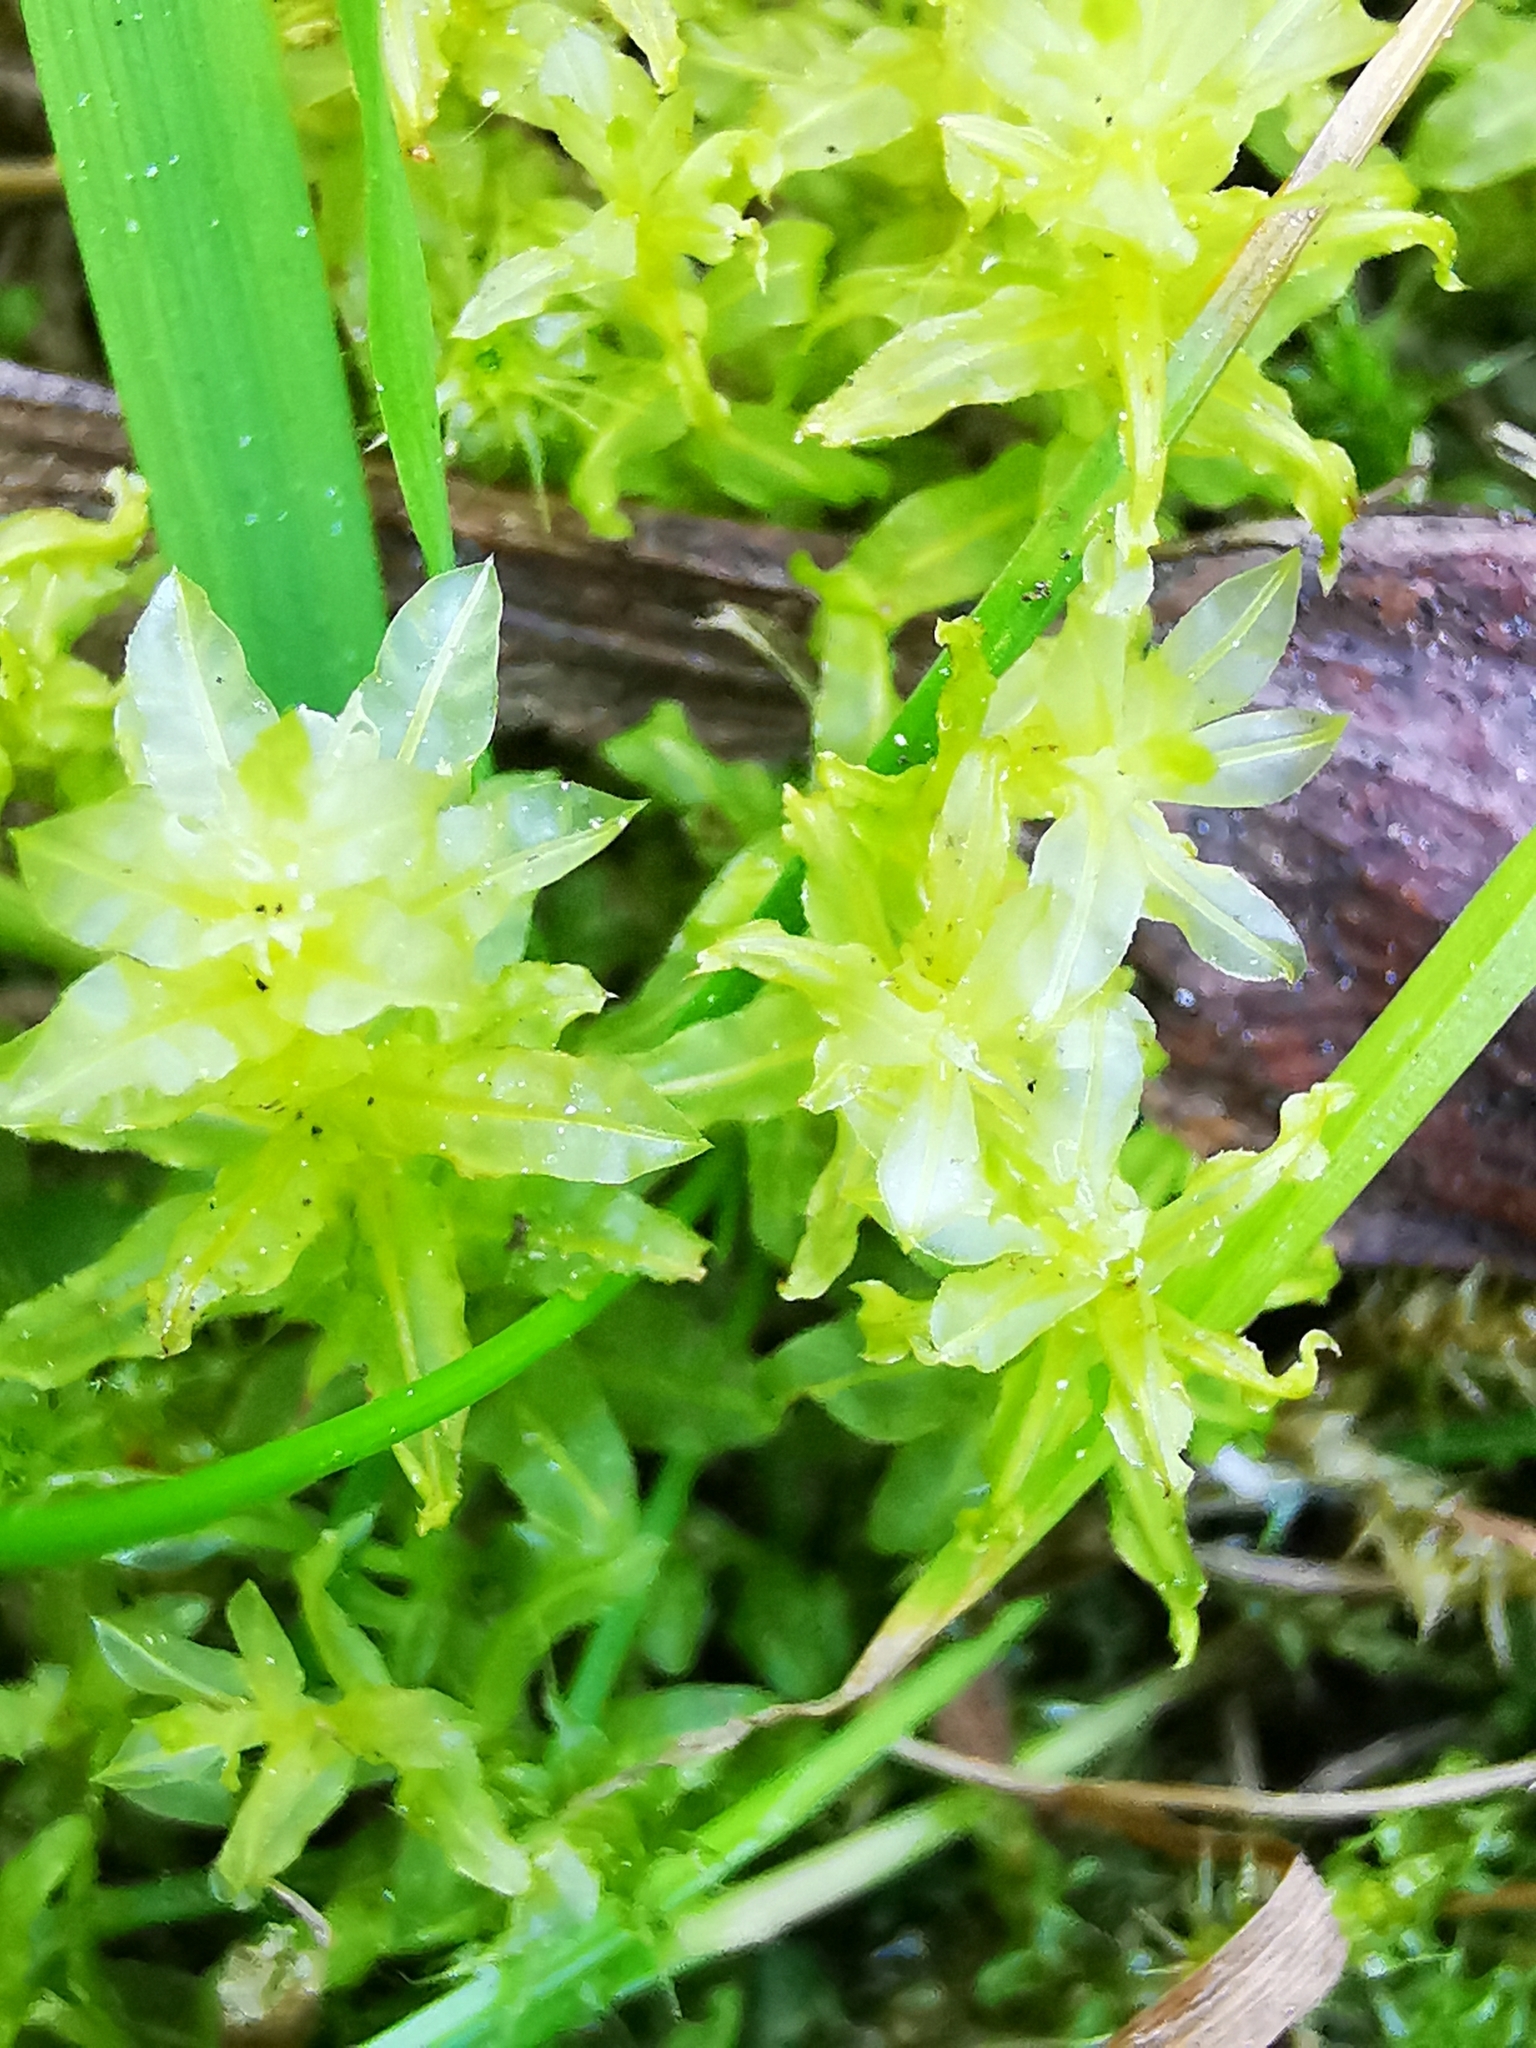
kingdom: Plantae
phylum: Bryophyta
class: Bryopsida
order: Bryales
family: Mniaceae
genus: Plagiomnium
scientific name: Plagiomnium undulatum
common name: Hart's-tongue thyme-moss
